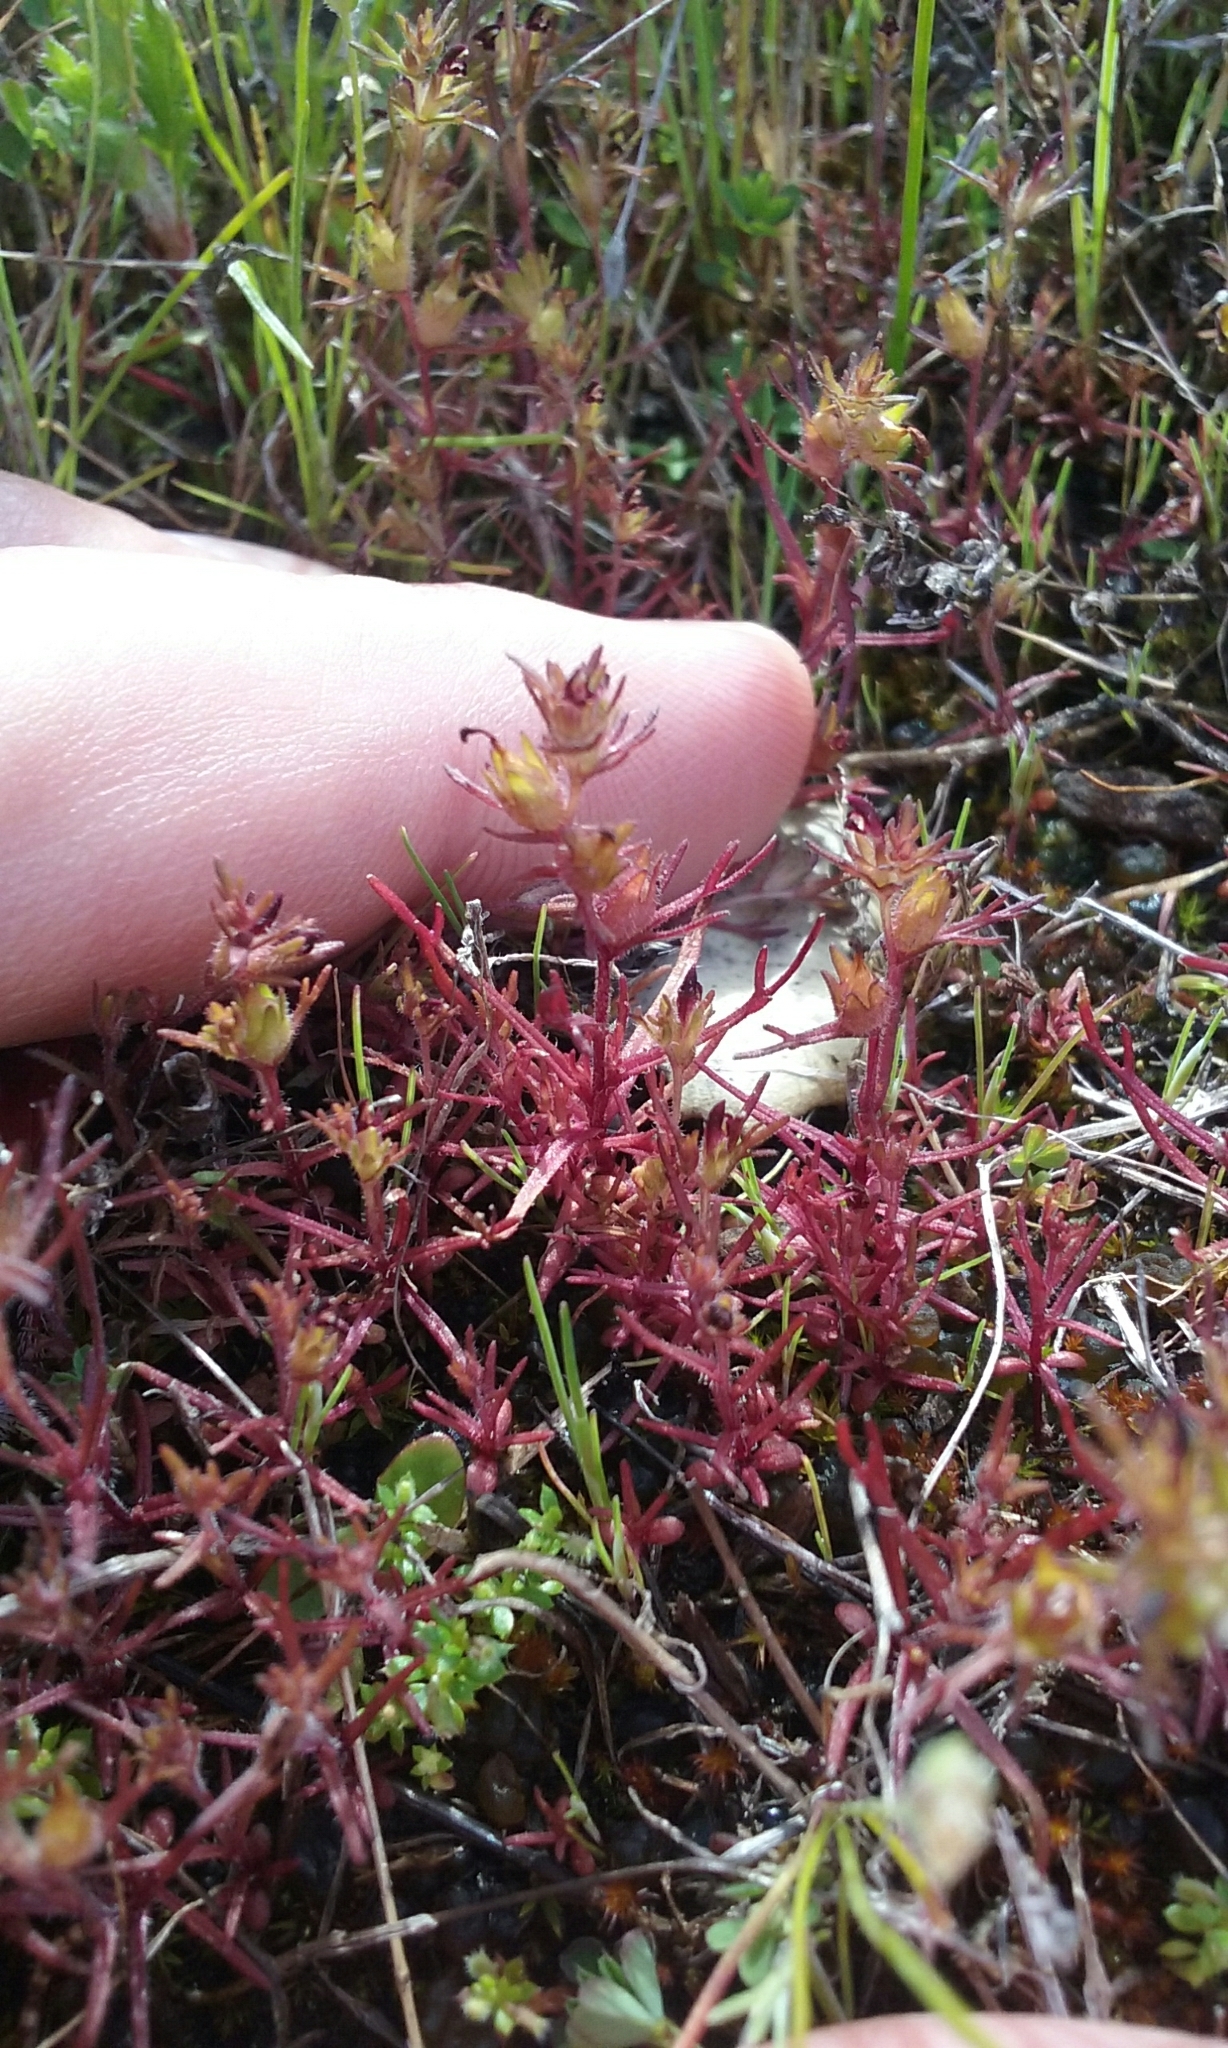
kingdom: Plantae
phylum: Tracheophyta
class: Magnoliopsida
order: Lamiales
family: Orobanchaceae
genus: Triphysaria
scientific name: Triphysaria pusilla
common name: Dwarf false owl-clover
